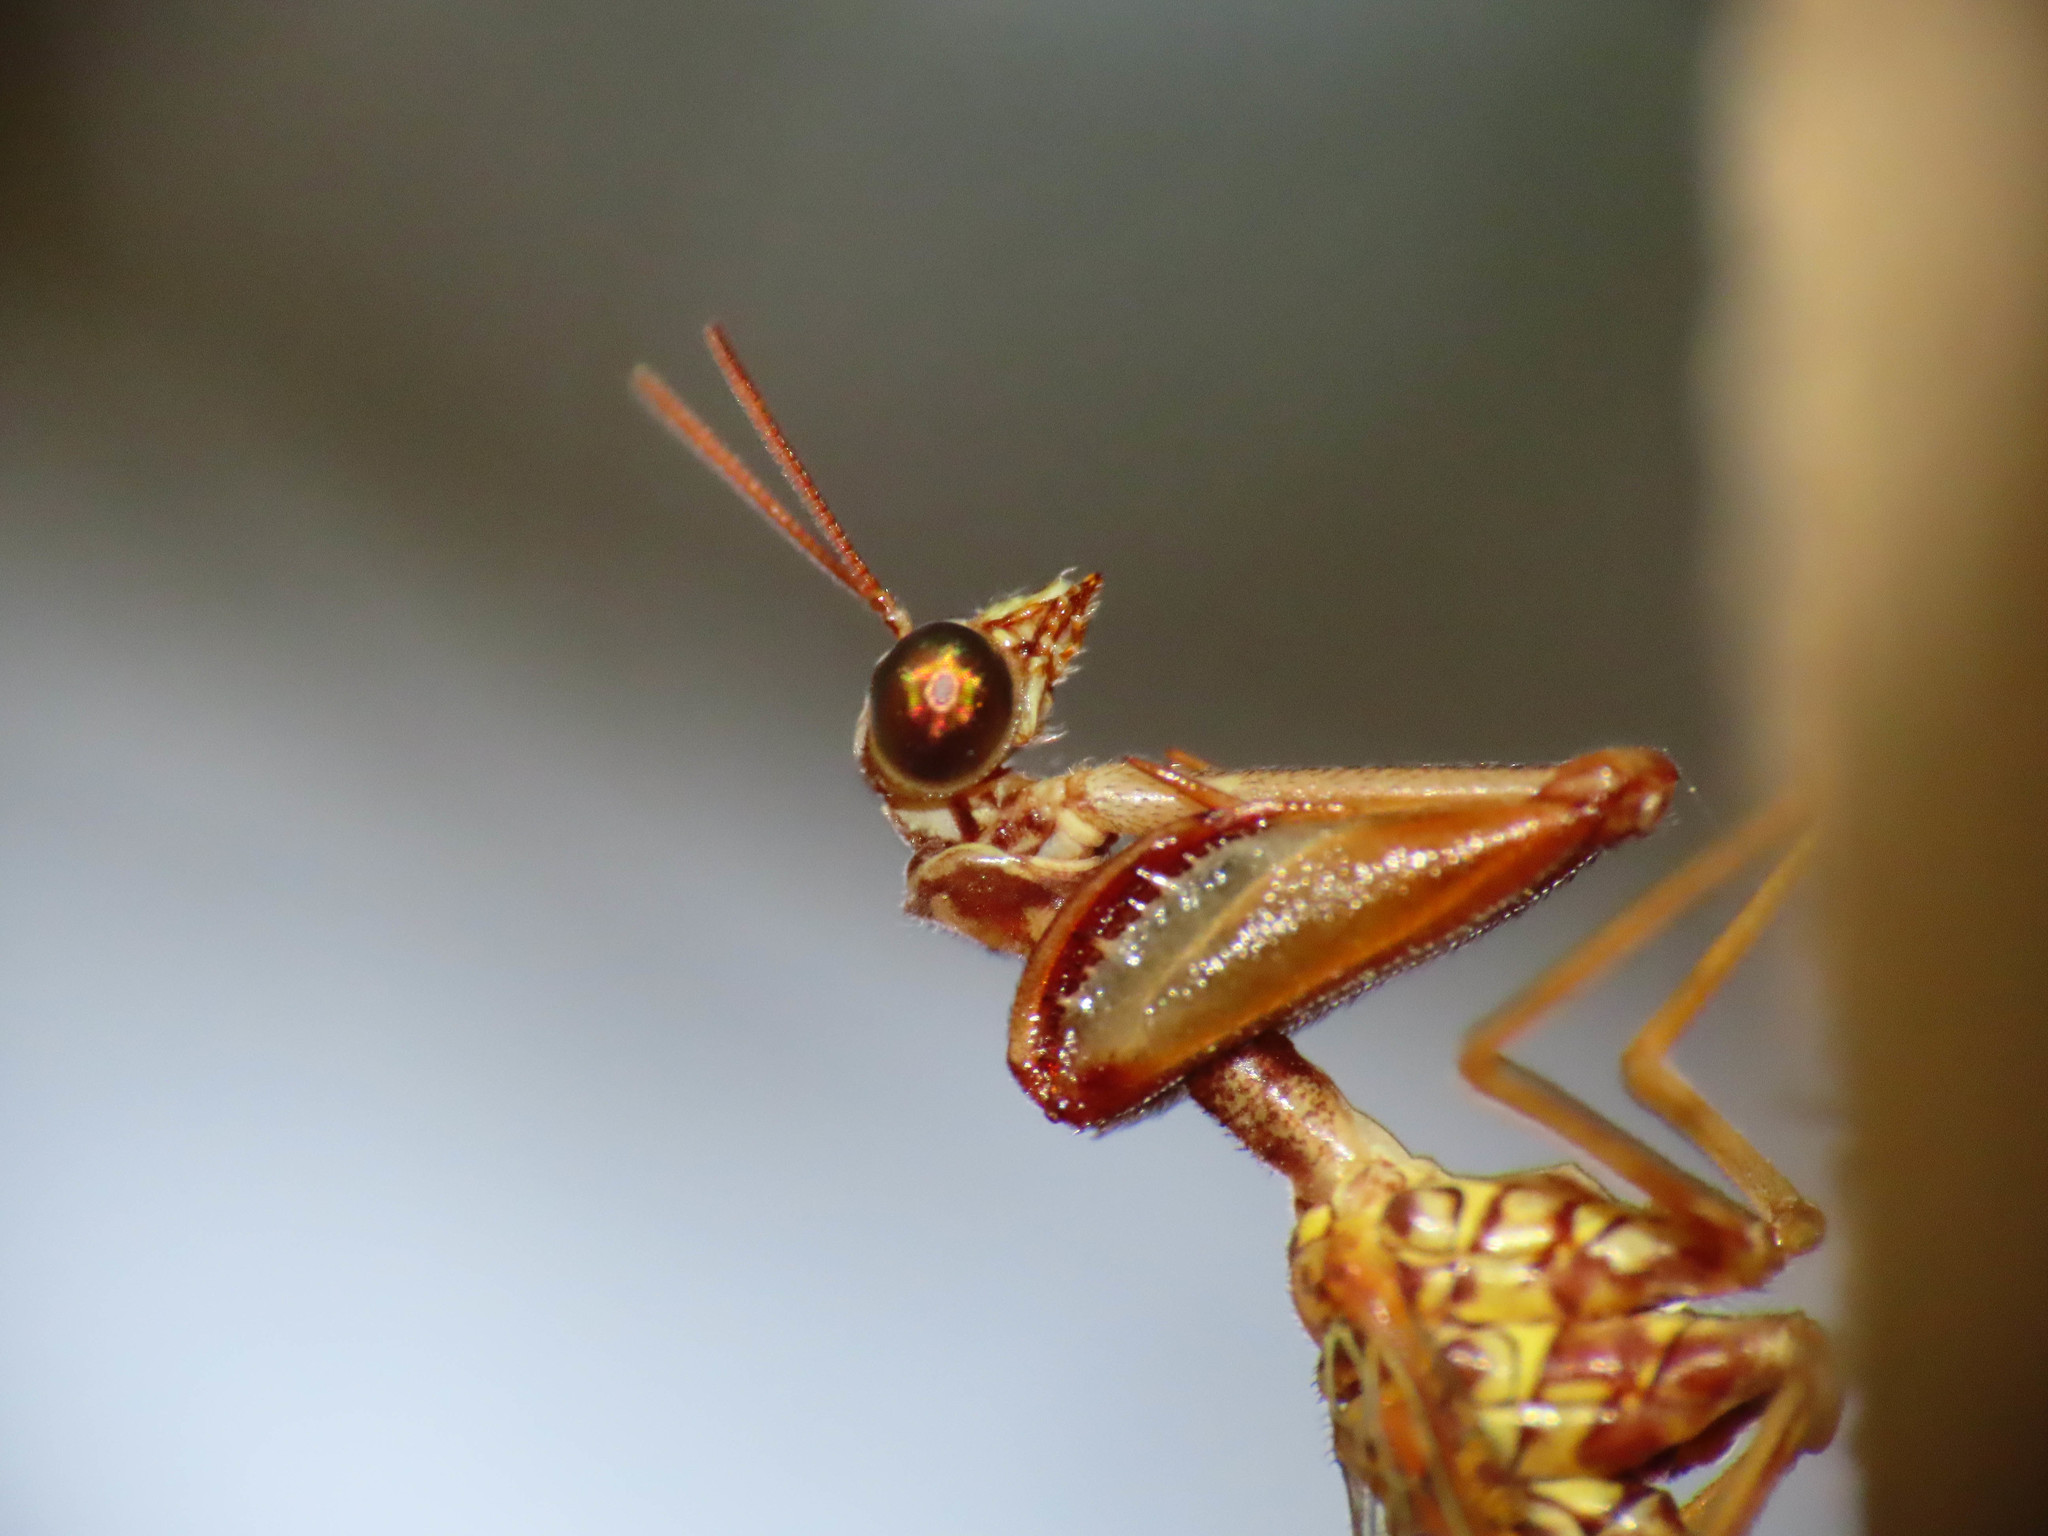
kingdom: Animalia
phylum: Arthropoda
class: Insecta
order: Neuroptera
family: Mantispidae
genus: Mantispa
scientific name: Mantispa styriaca
